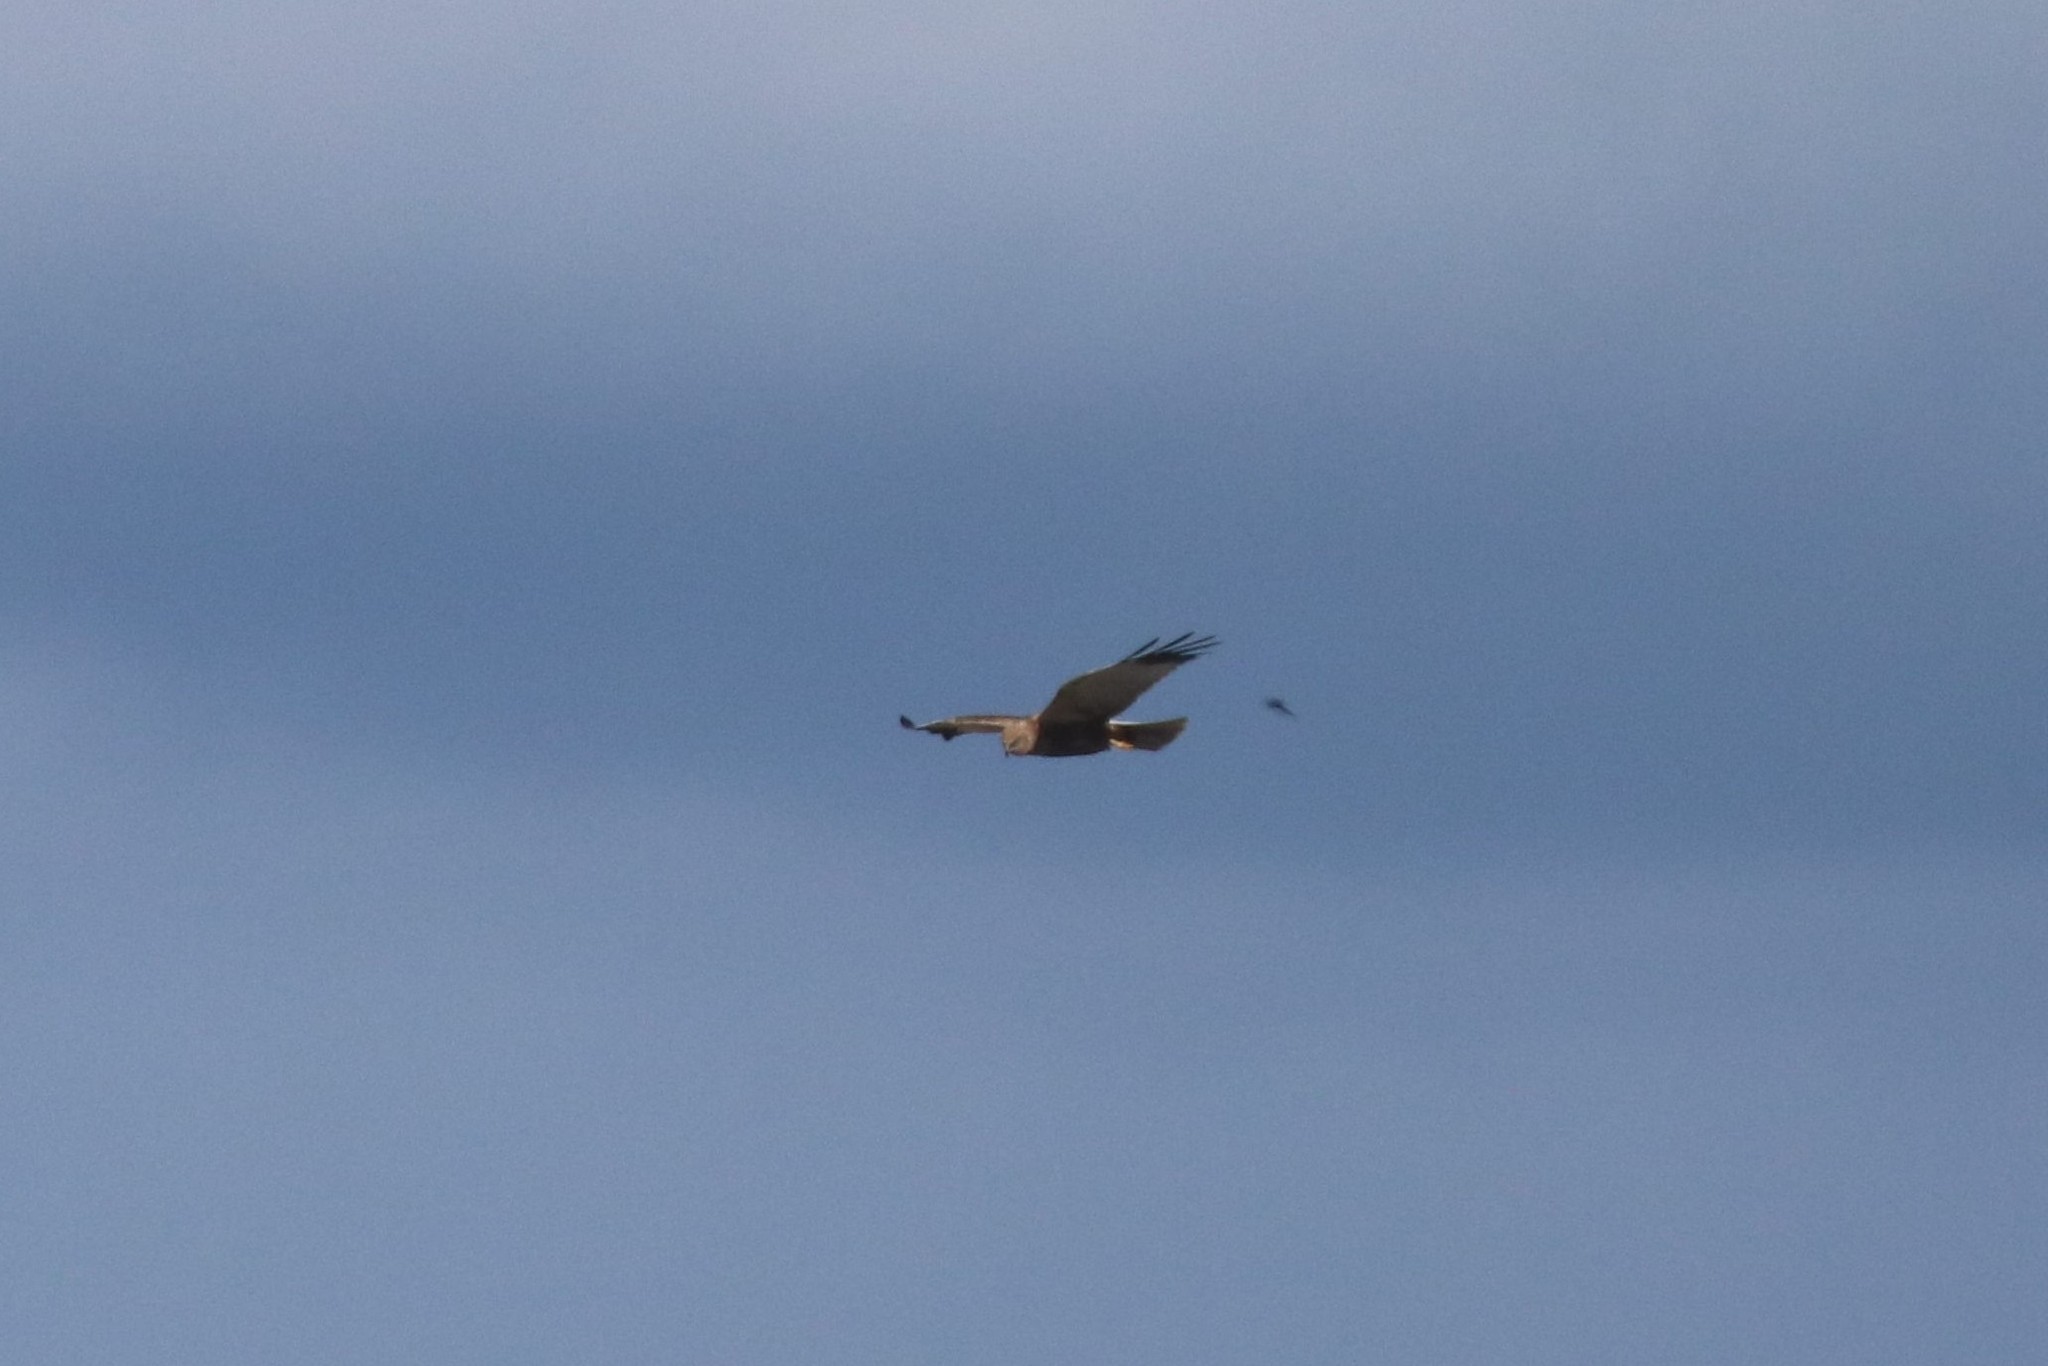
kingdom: Animalia
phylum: Chordata
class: Aves
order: Accipitriformes
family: Accipitridae
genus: Circus
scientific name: Circus aeruginosus
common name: Western marsh harrier
